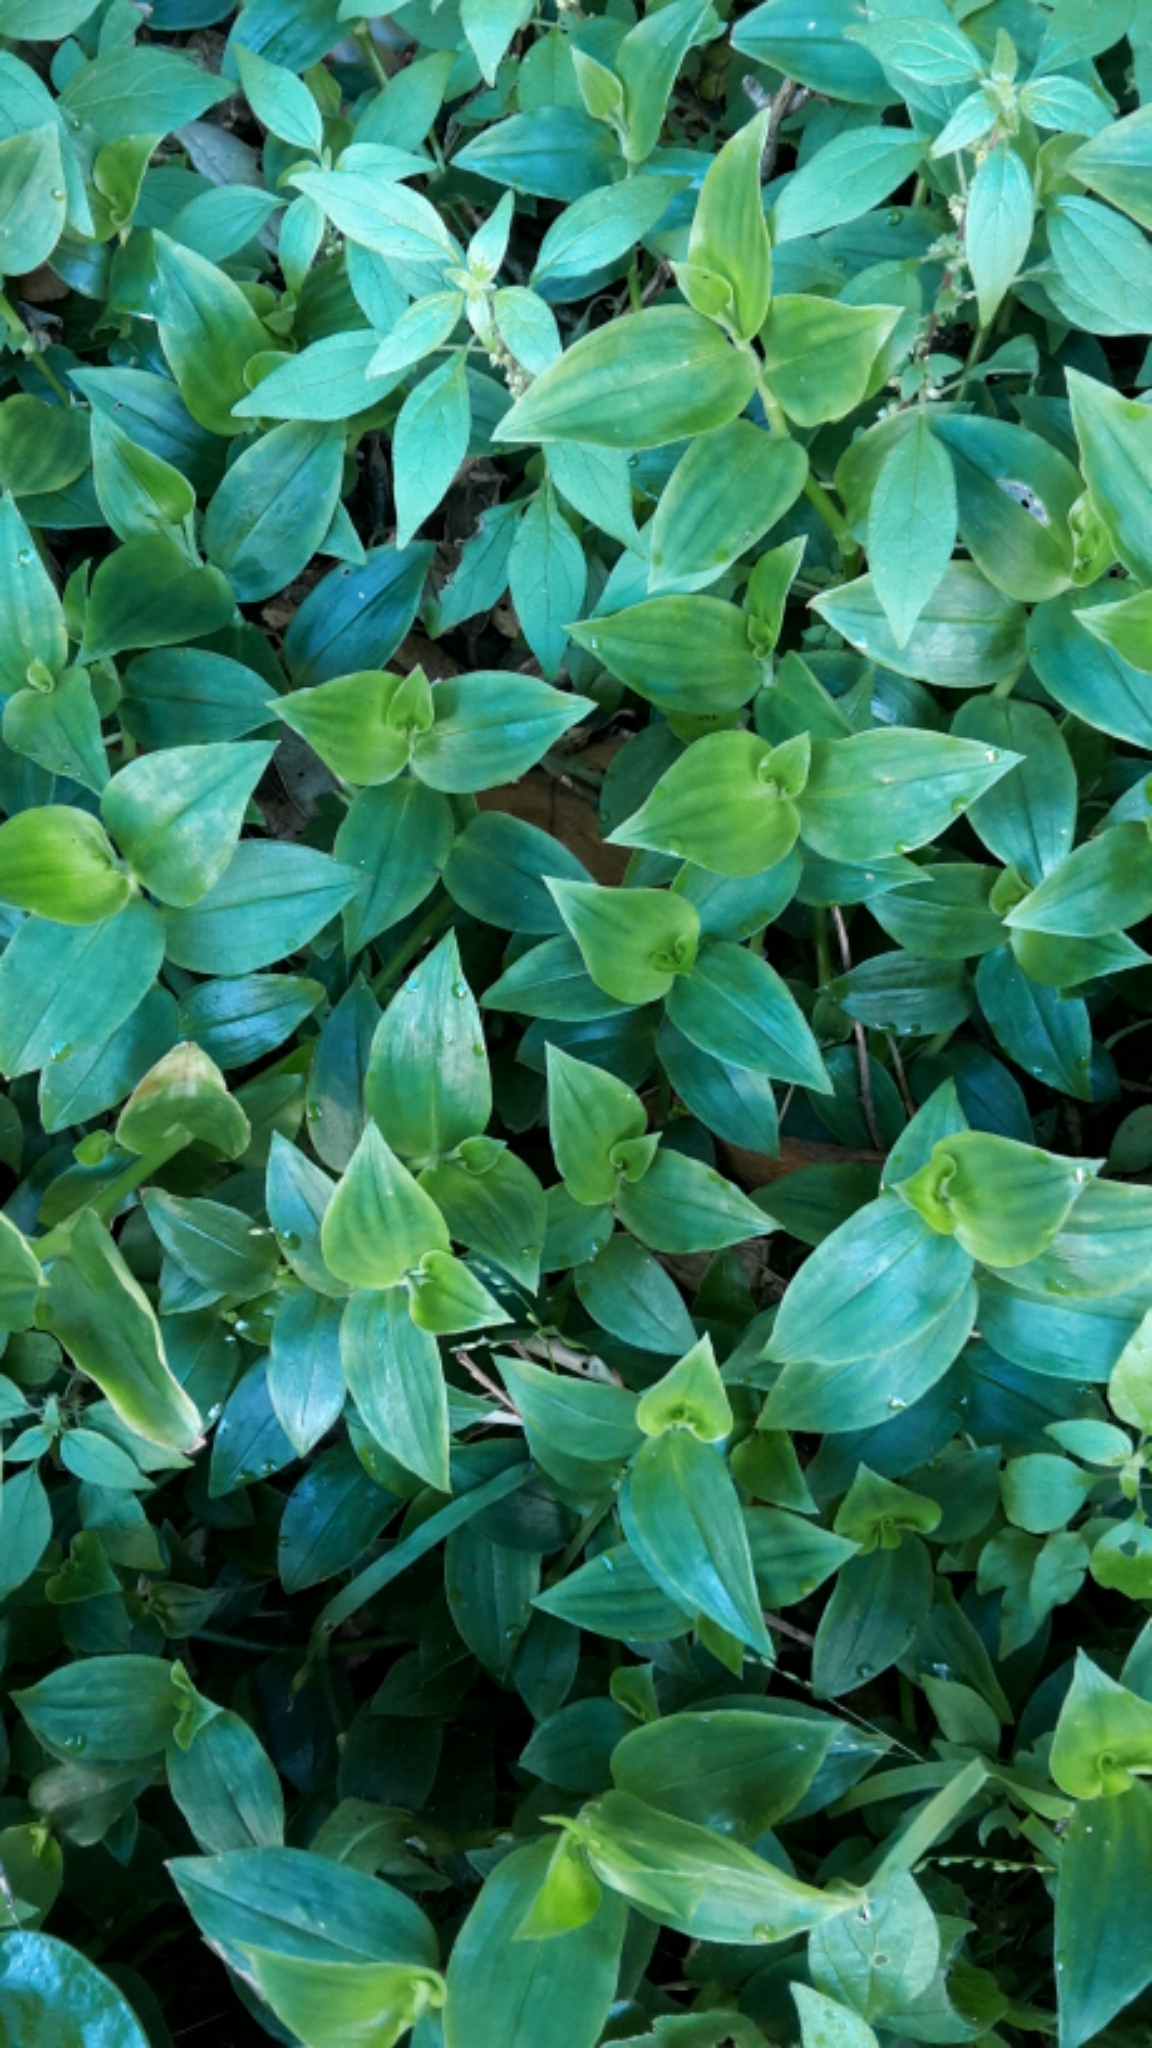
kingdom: Plantae
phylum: Tracheophyta
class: Liliopsida
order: Commelinales
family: Commelinaceae
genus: Tradescantia
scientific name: Tradescantia fluminensis
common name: Wandering-jew
